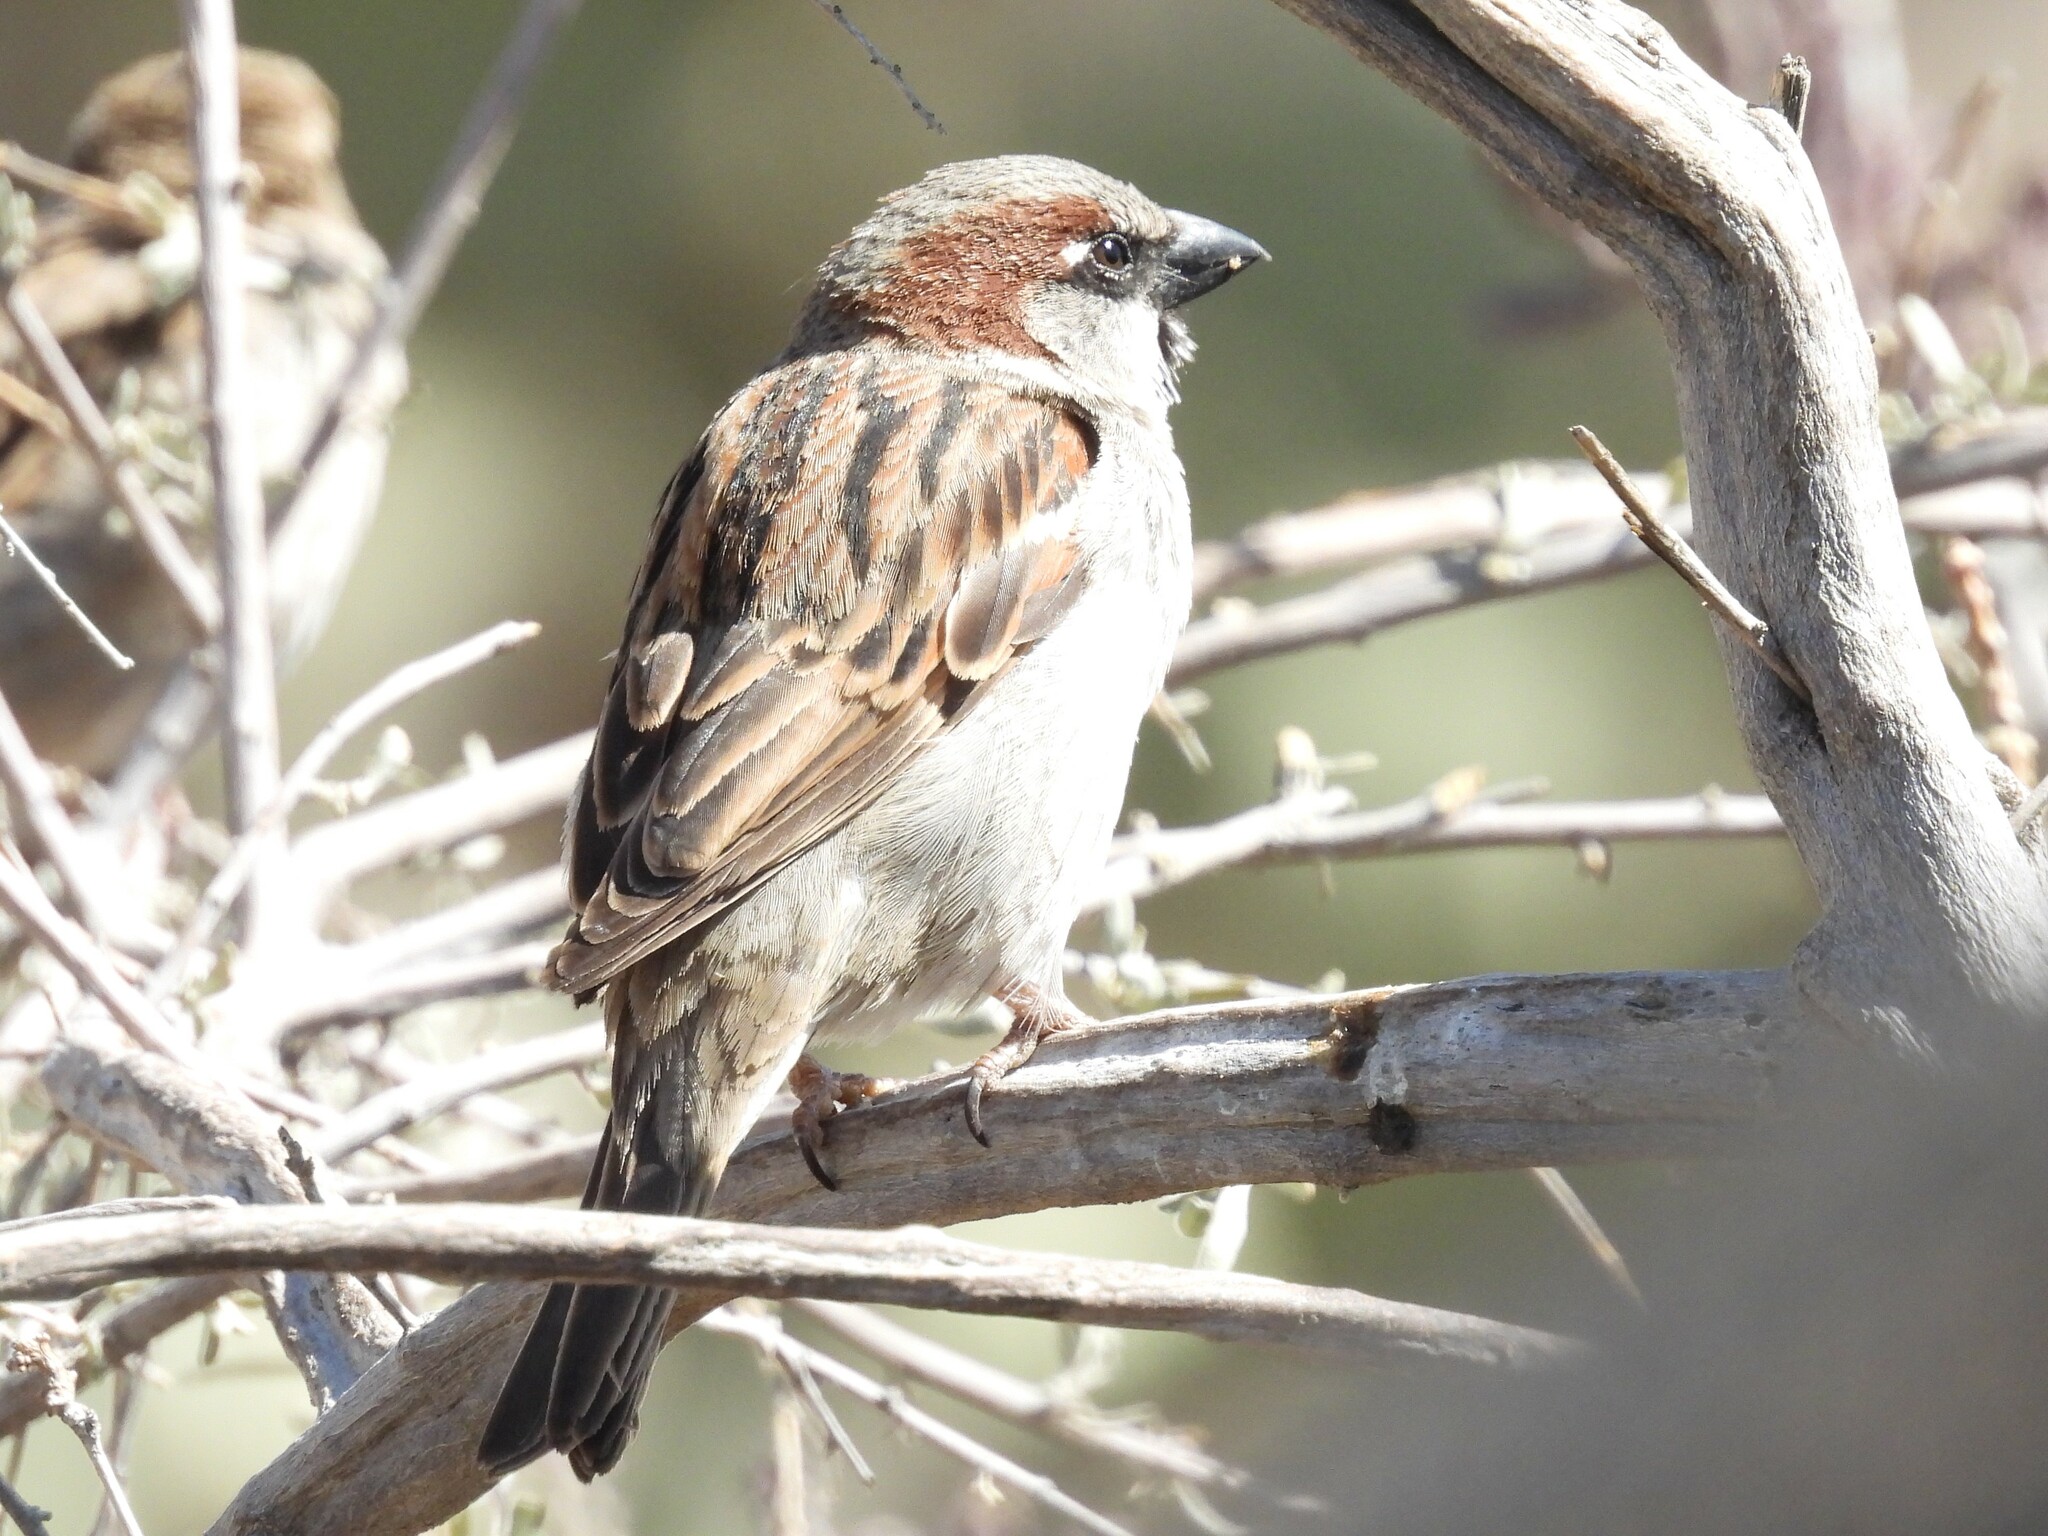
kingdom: Animalia
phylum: Chordata
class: Aves
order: Passeriformes
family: Passeridae
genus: Passer
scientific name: Passer domesticus
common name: House sparrow
